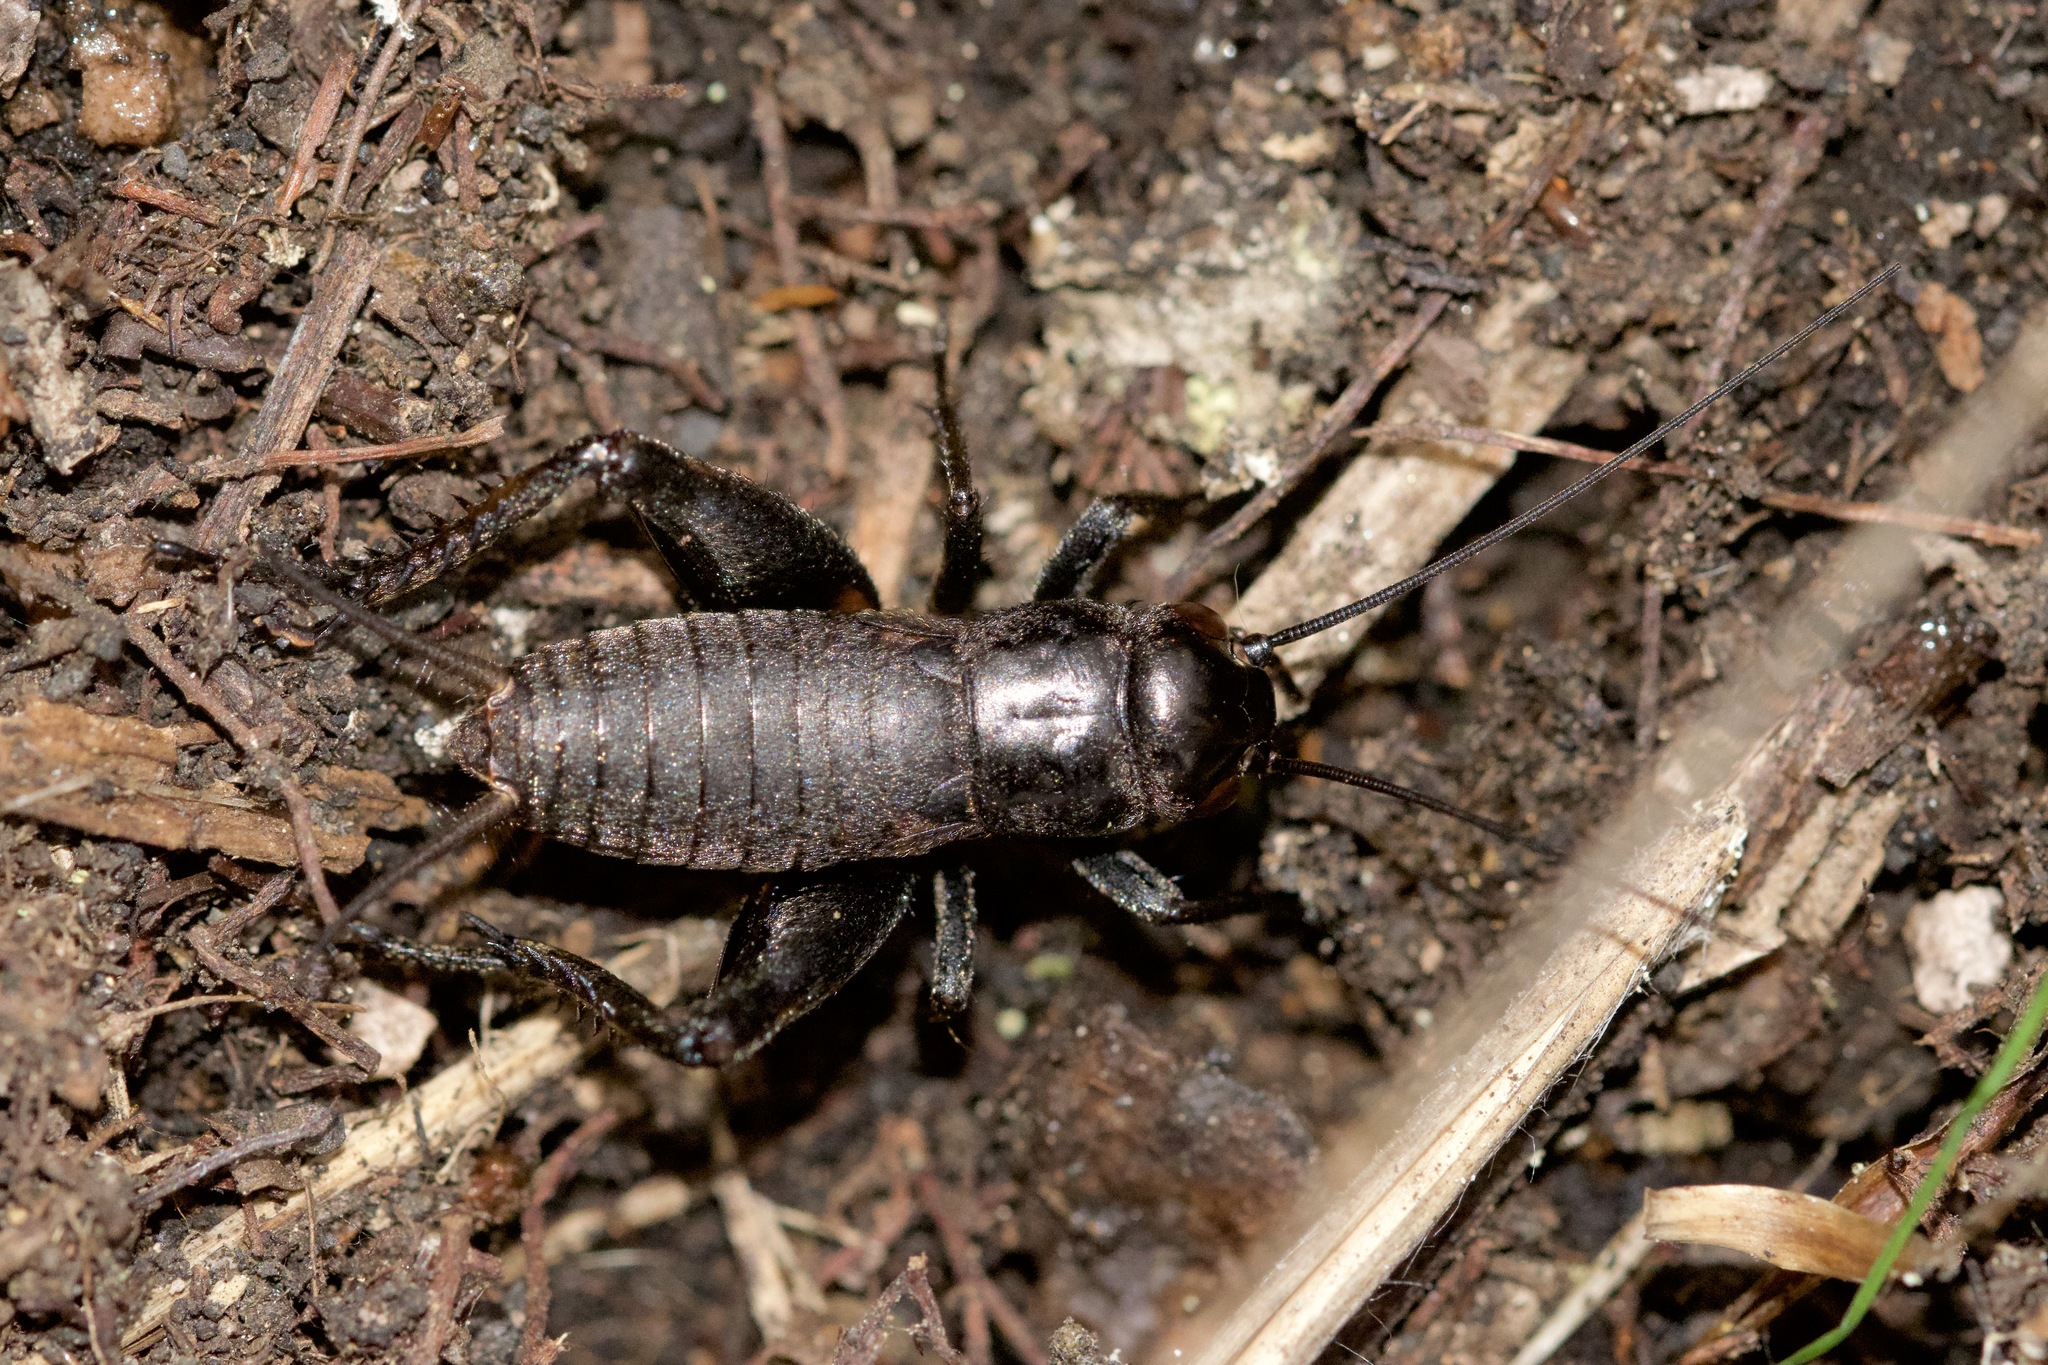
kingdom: Animalia
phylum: Arthropoda
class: Insecta
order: Orthoptera
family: Gryllidae
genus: Gryllus
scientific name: Gryllus veletis
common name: Spring field cricket
